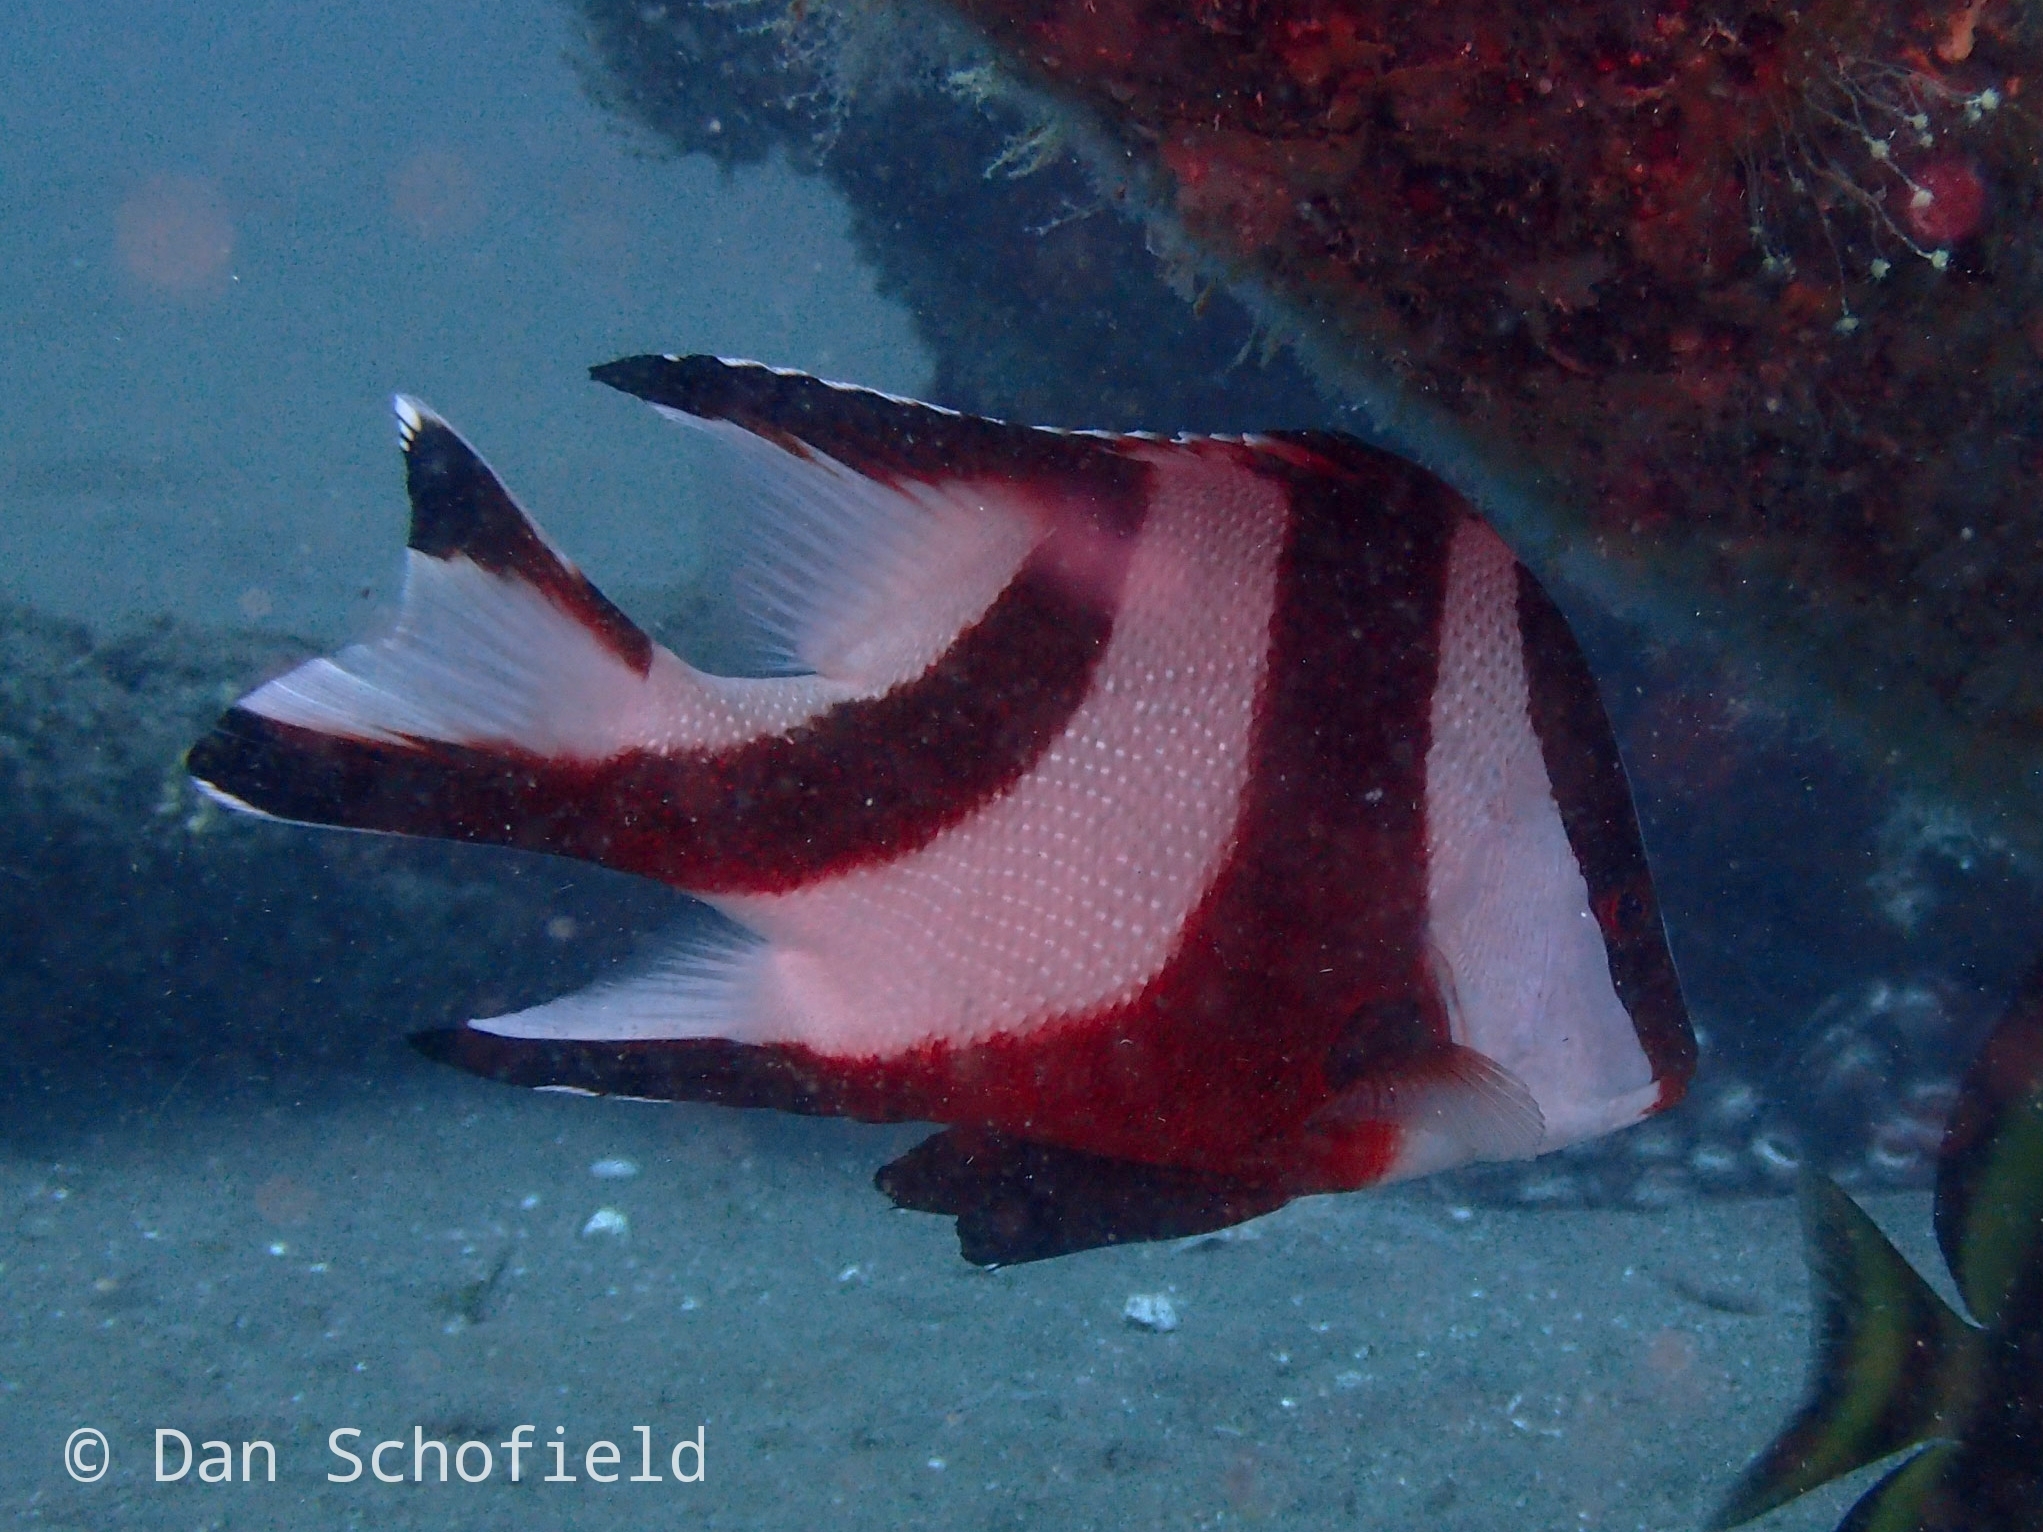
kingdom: Animalia
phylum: Chordata
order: Perciformes
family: Lutjanidae
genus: Lutjanus
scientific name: Lutjanus sebae
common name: Emperor red snapper
